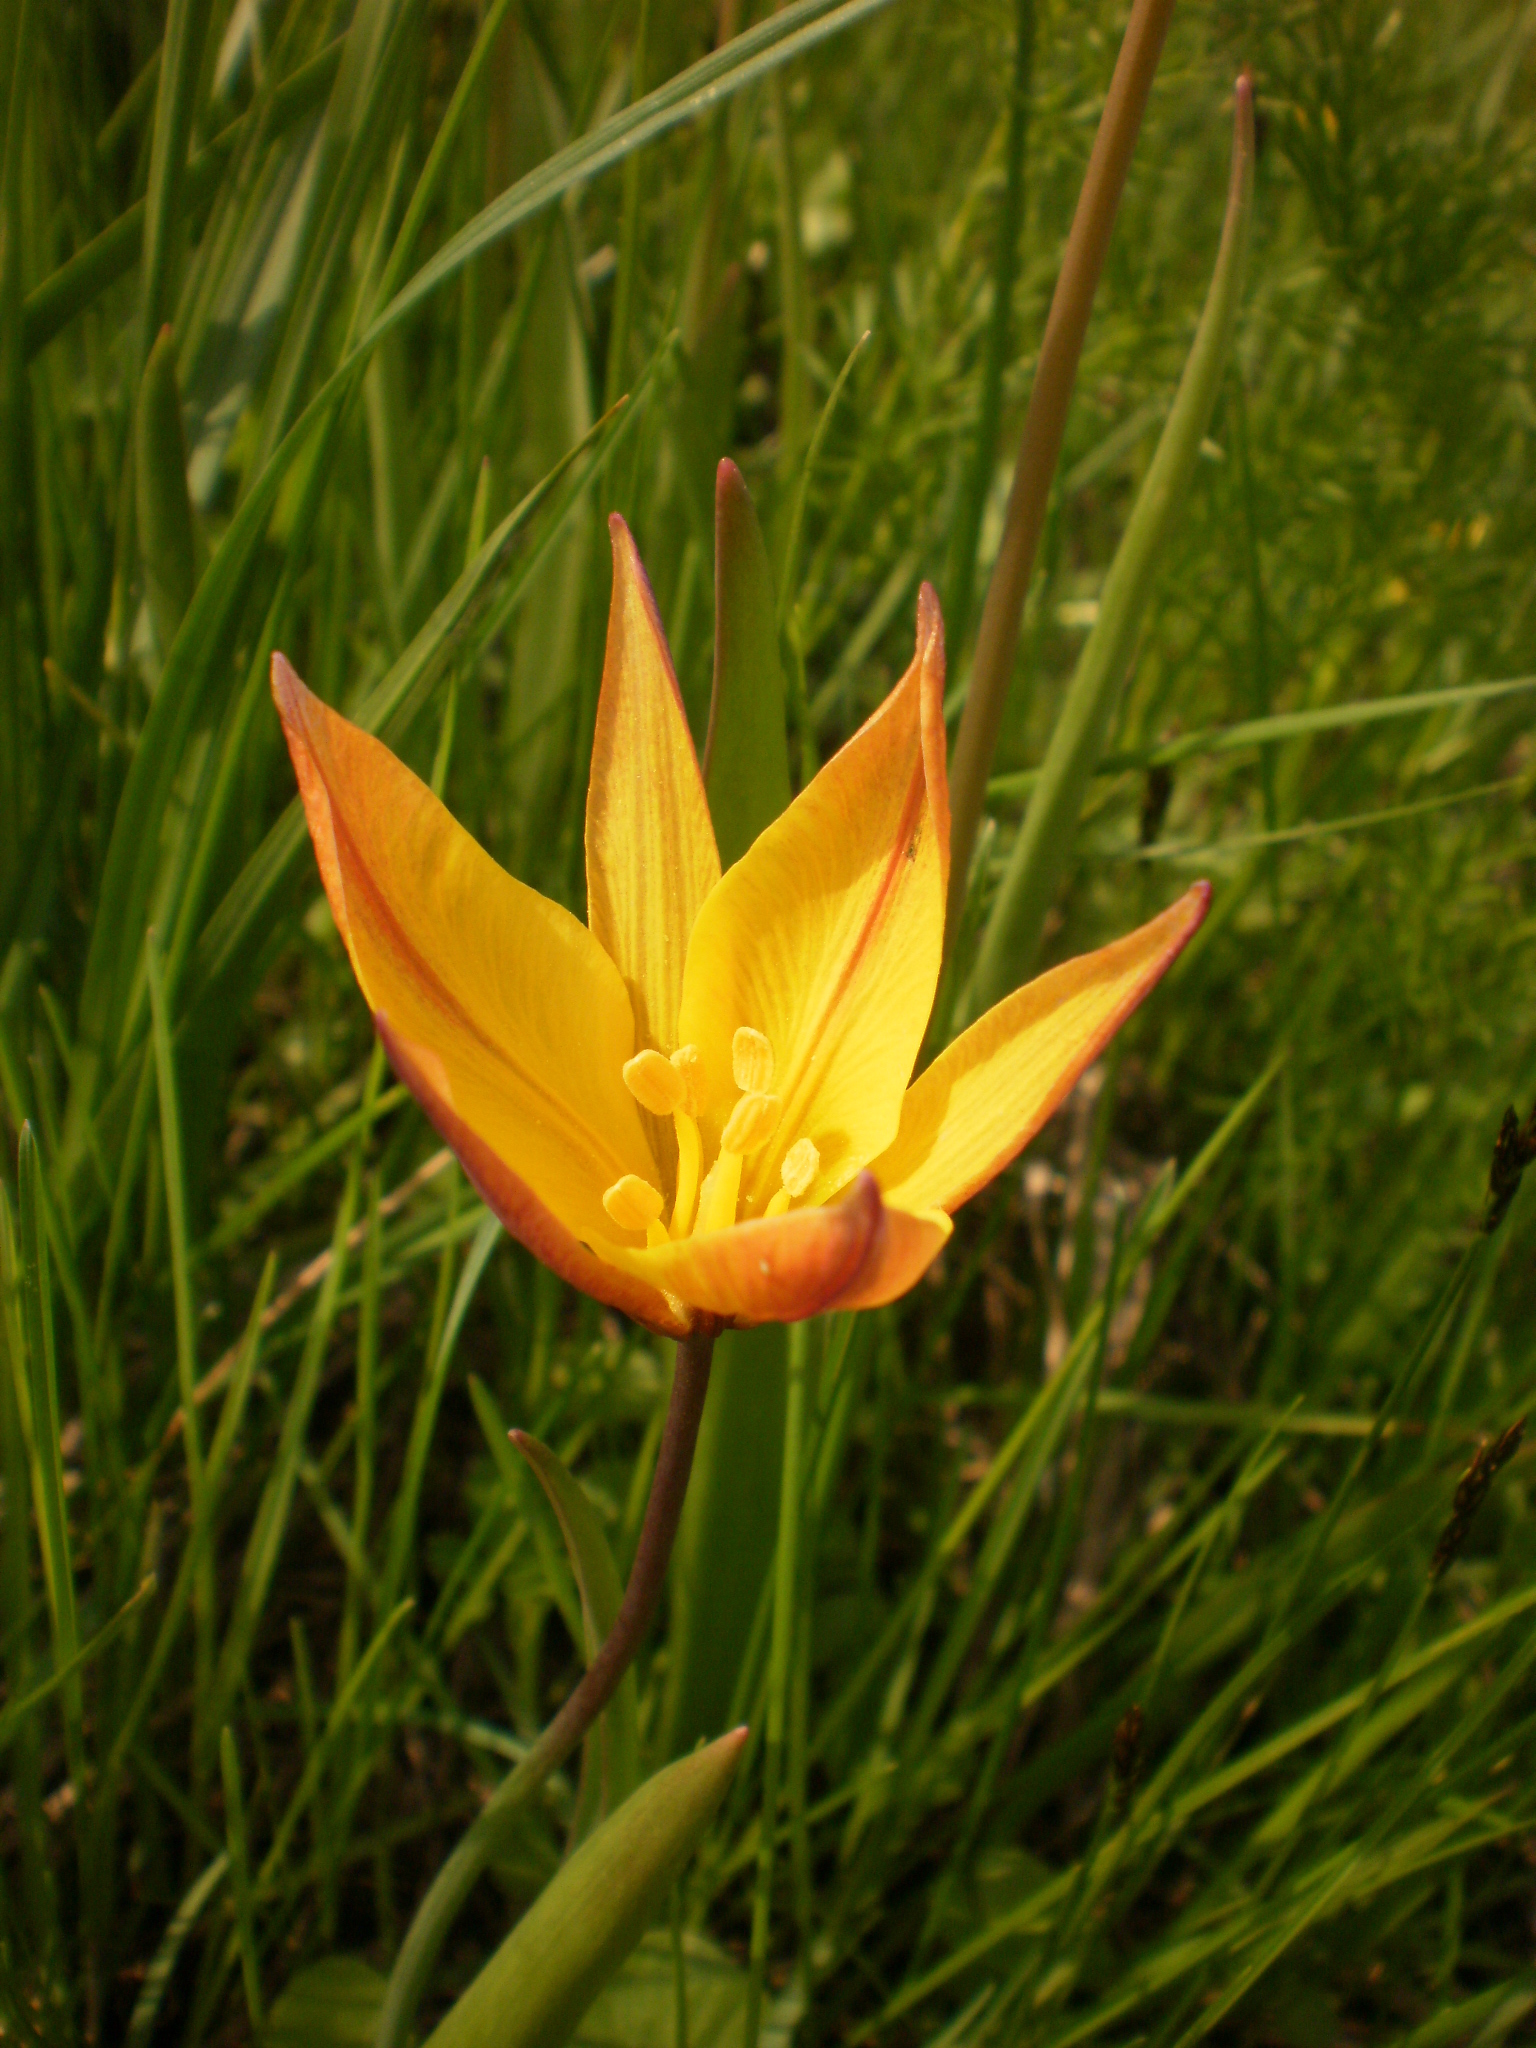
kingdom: Plantae
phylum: Tracheophyta
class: Liliopsida
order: Liliales
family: Liliaceae
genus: Tulipa
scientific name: Tulipa sylvestris
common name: Wild tulip
